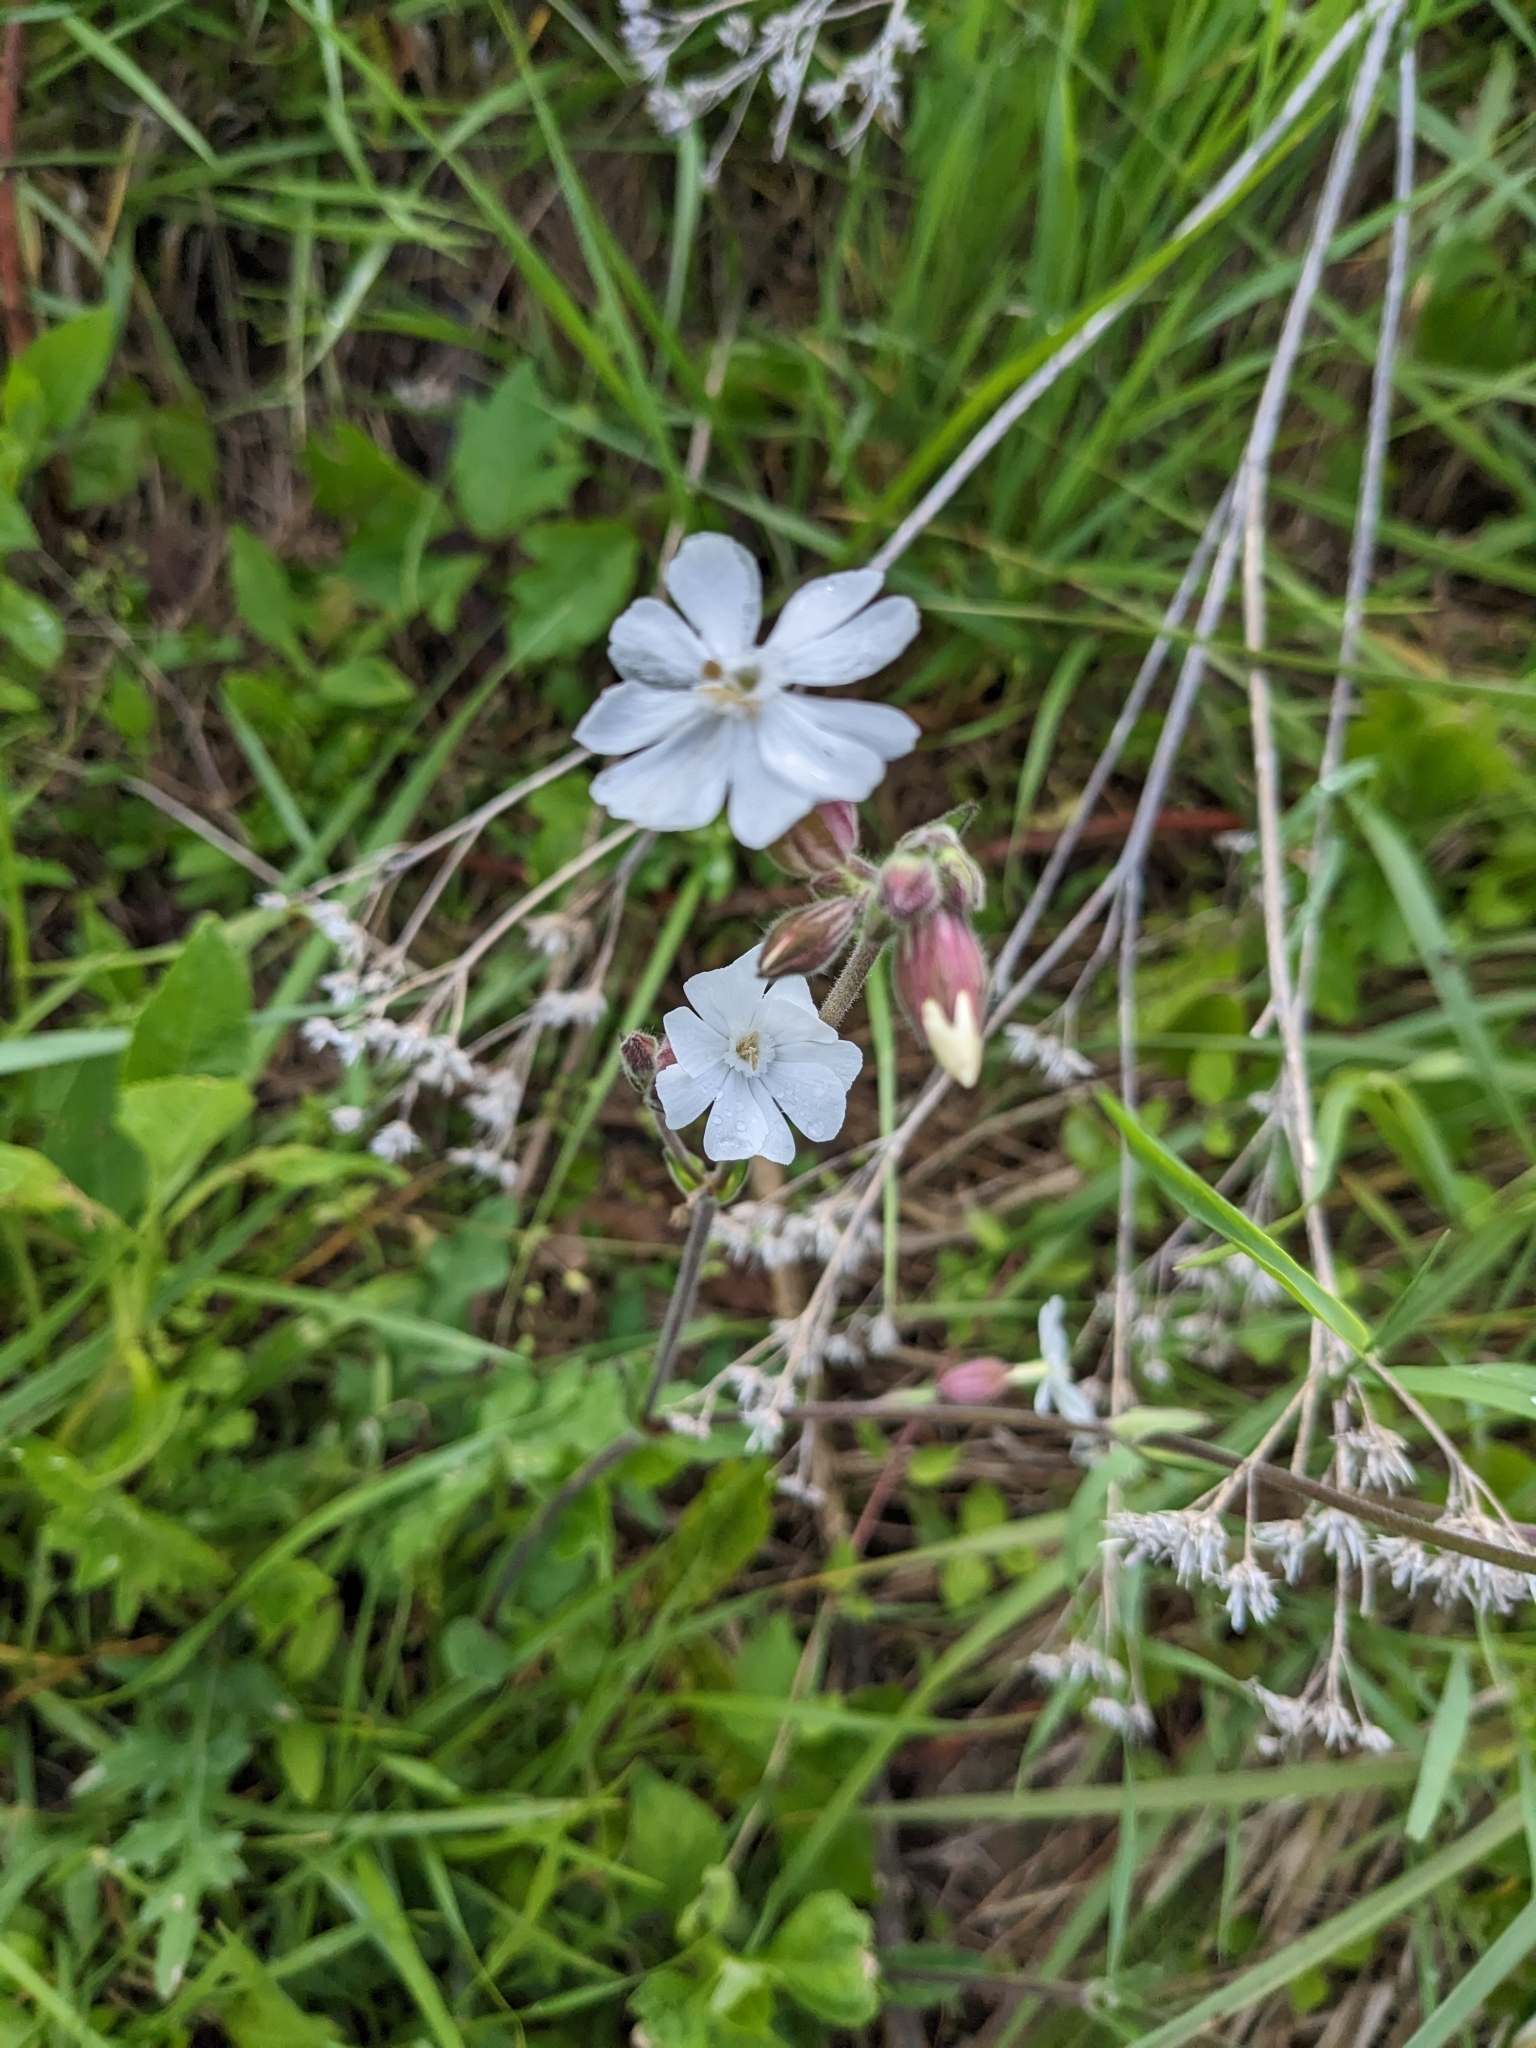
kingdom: Plantae
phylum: Tracheophyta
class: Magnoliopsida
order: Caryophyllales
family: Caryophyllaceae
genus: Silene
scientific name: Silene latifolia
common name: White campion
